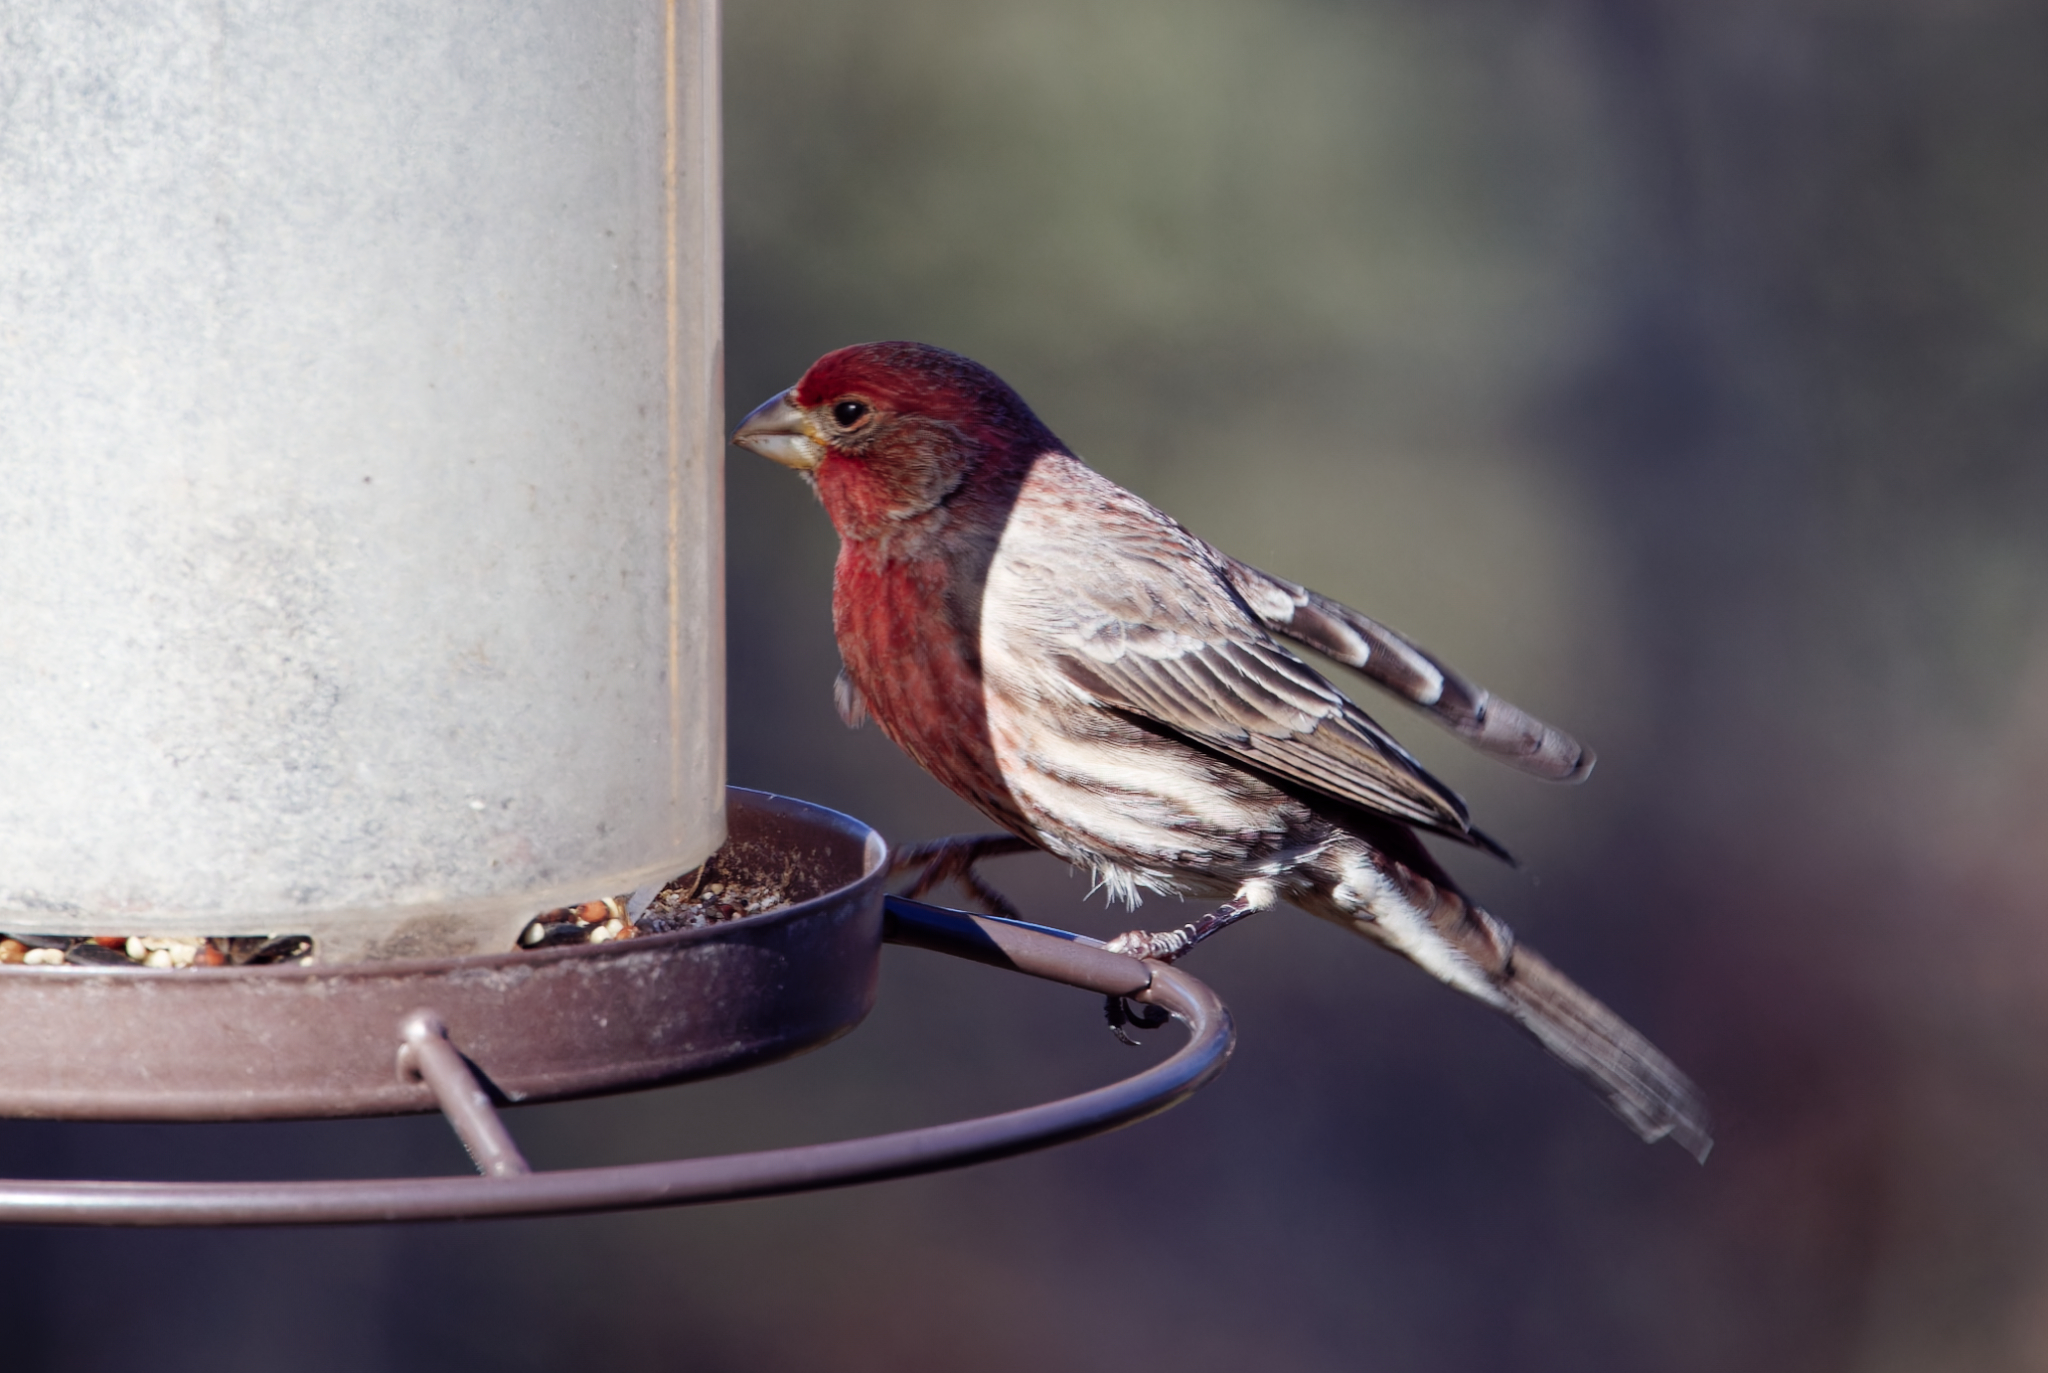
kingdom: Animalia
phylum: Chordata
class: Aves
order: Passeriformes
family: Fringillidae
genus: Haemorhous
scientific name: Haemorhous mexicanus
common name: House finch
